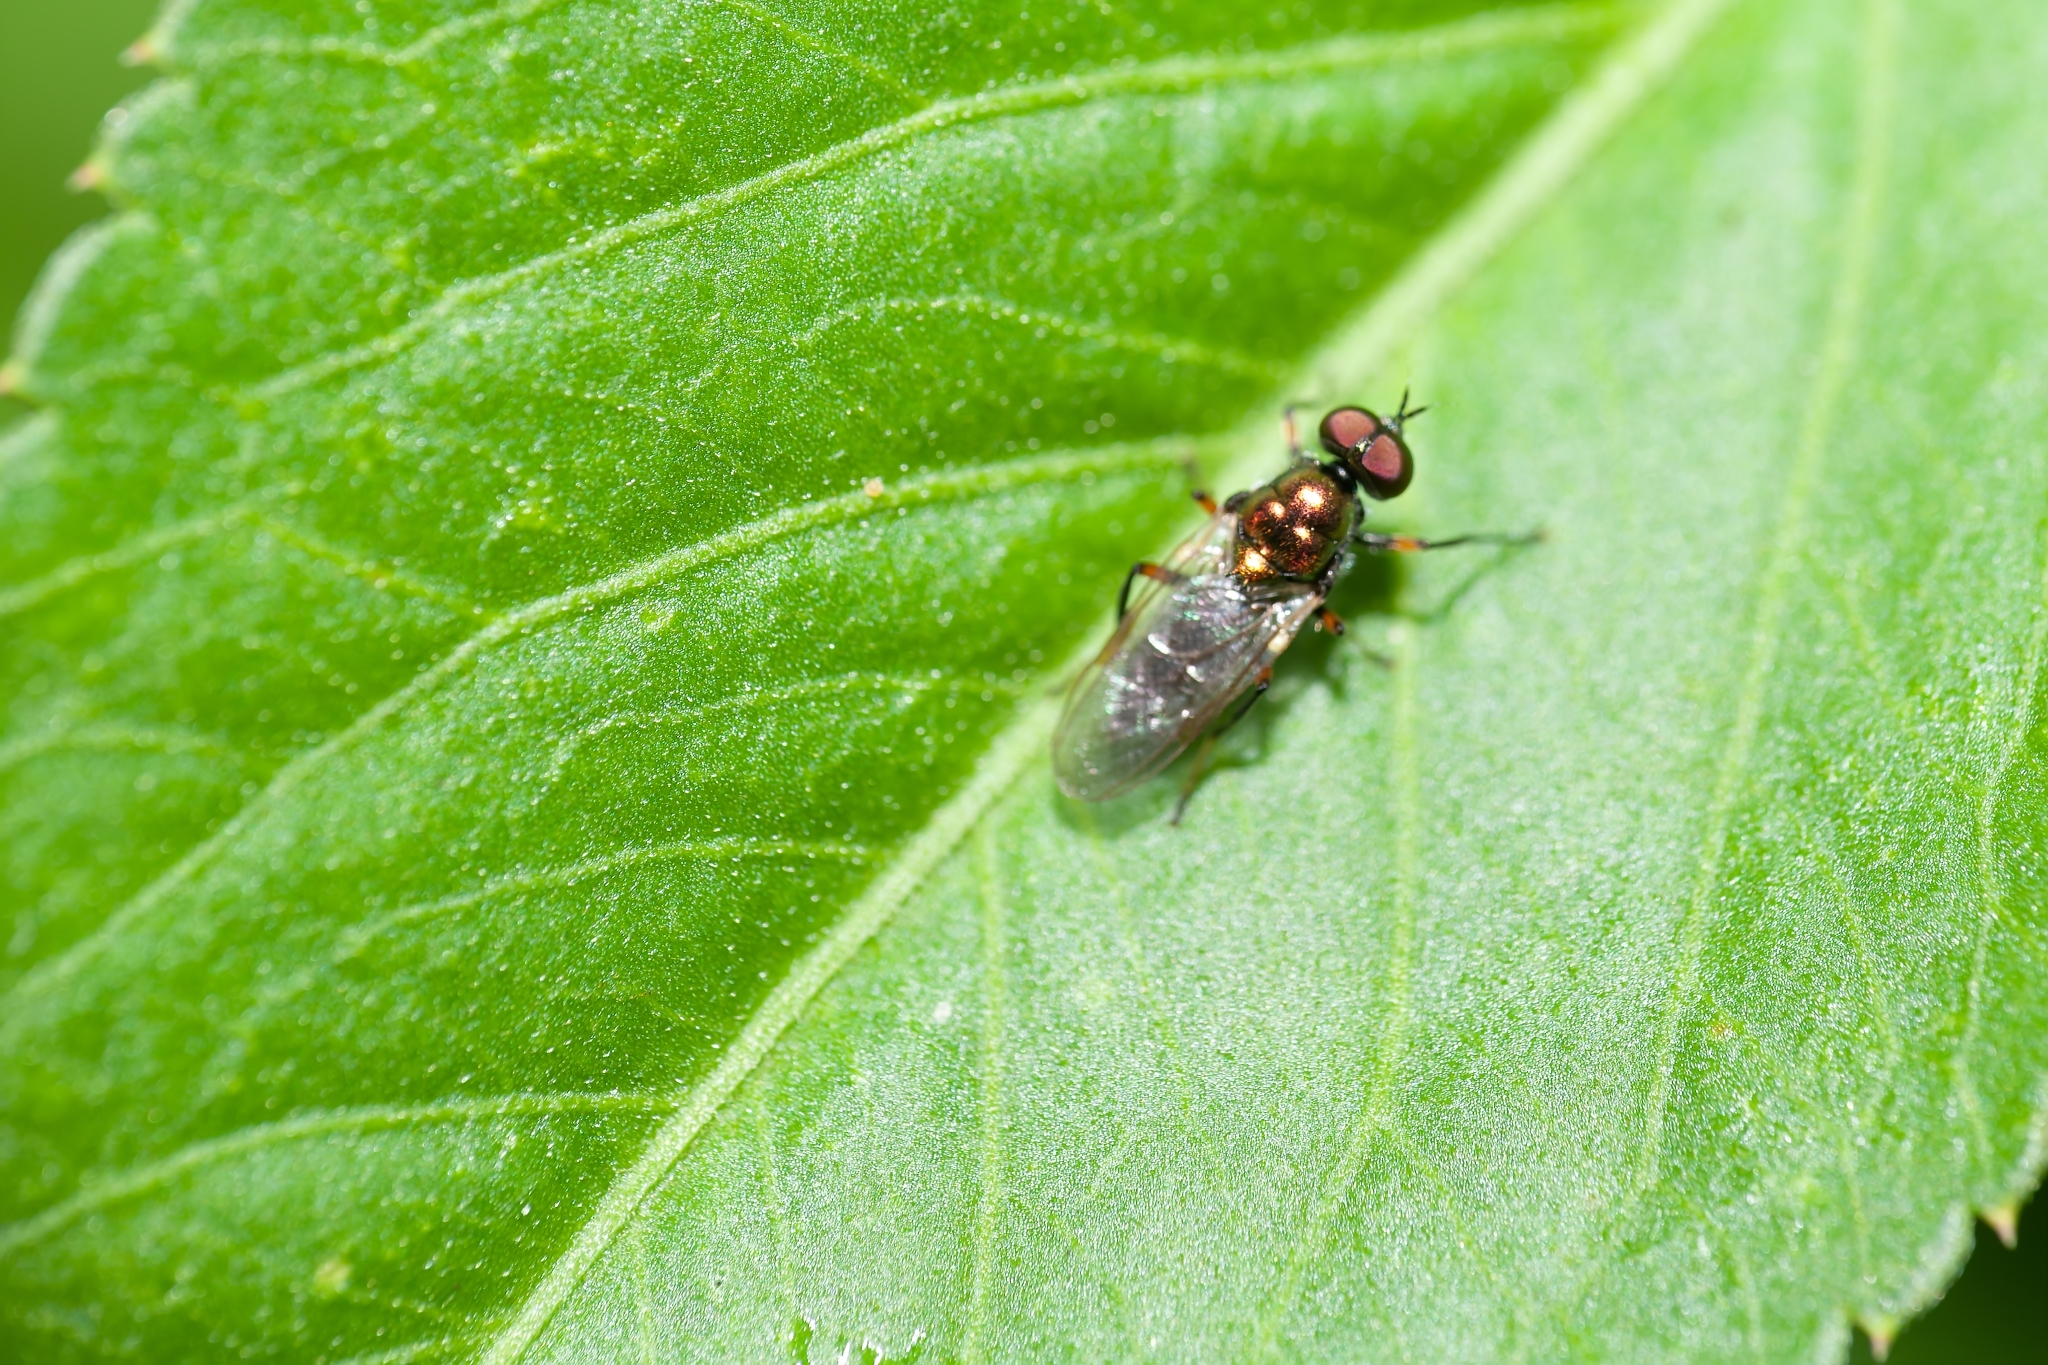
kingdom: Animalia
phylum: Arthropoda
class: Insecta
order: Diptera
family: Stratiomyidae
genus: Nothomyia
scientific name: Nothomyia calopus
